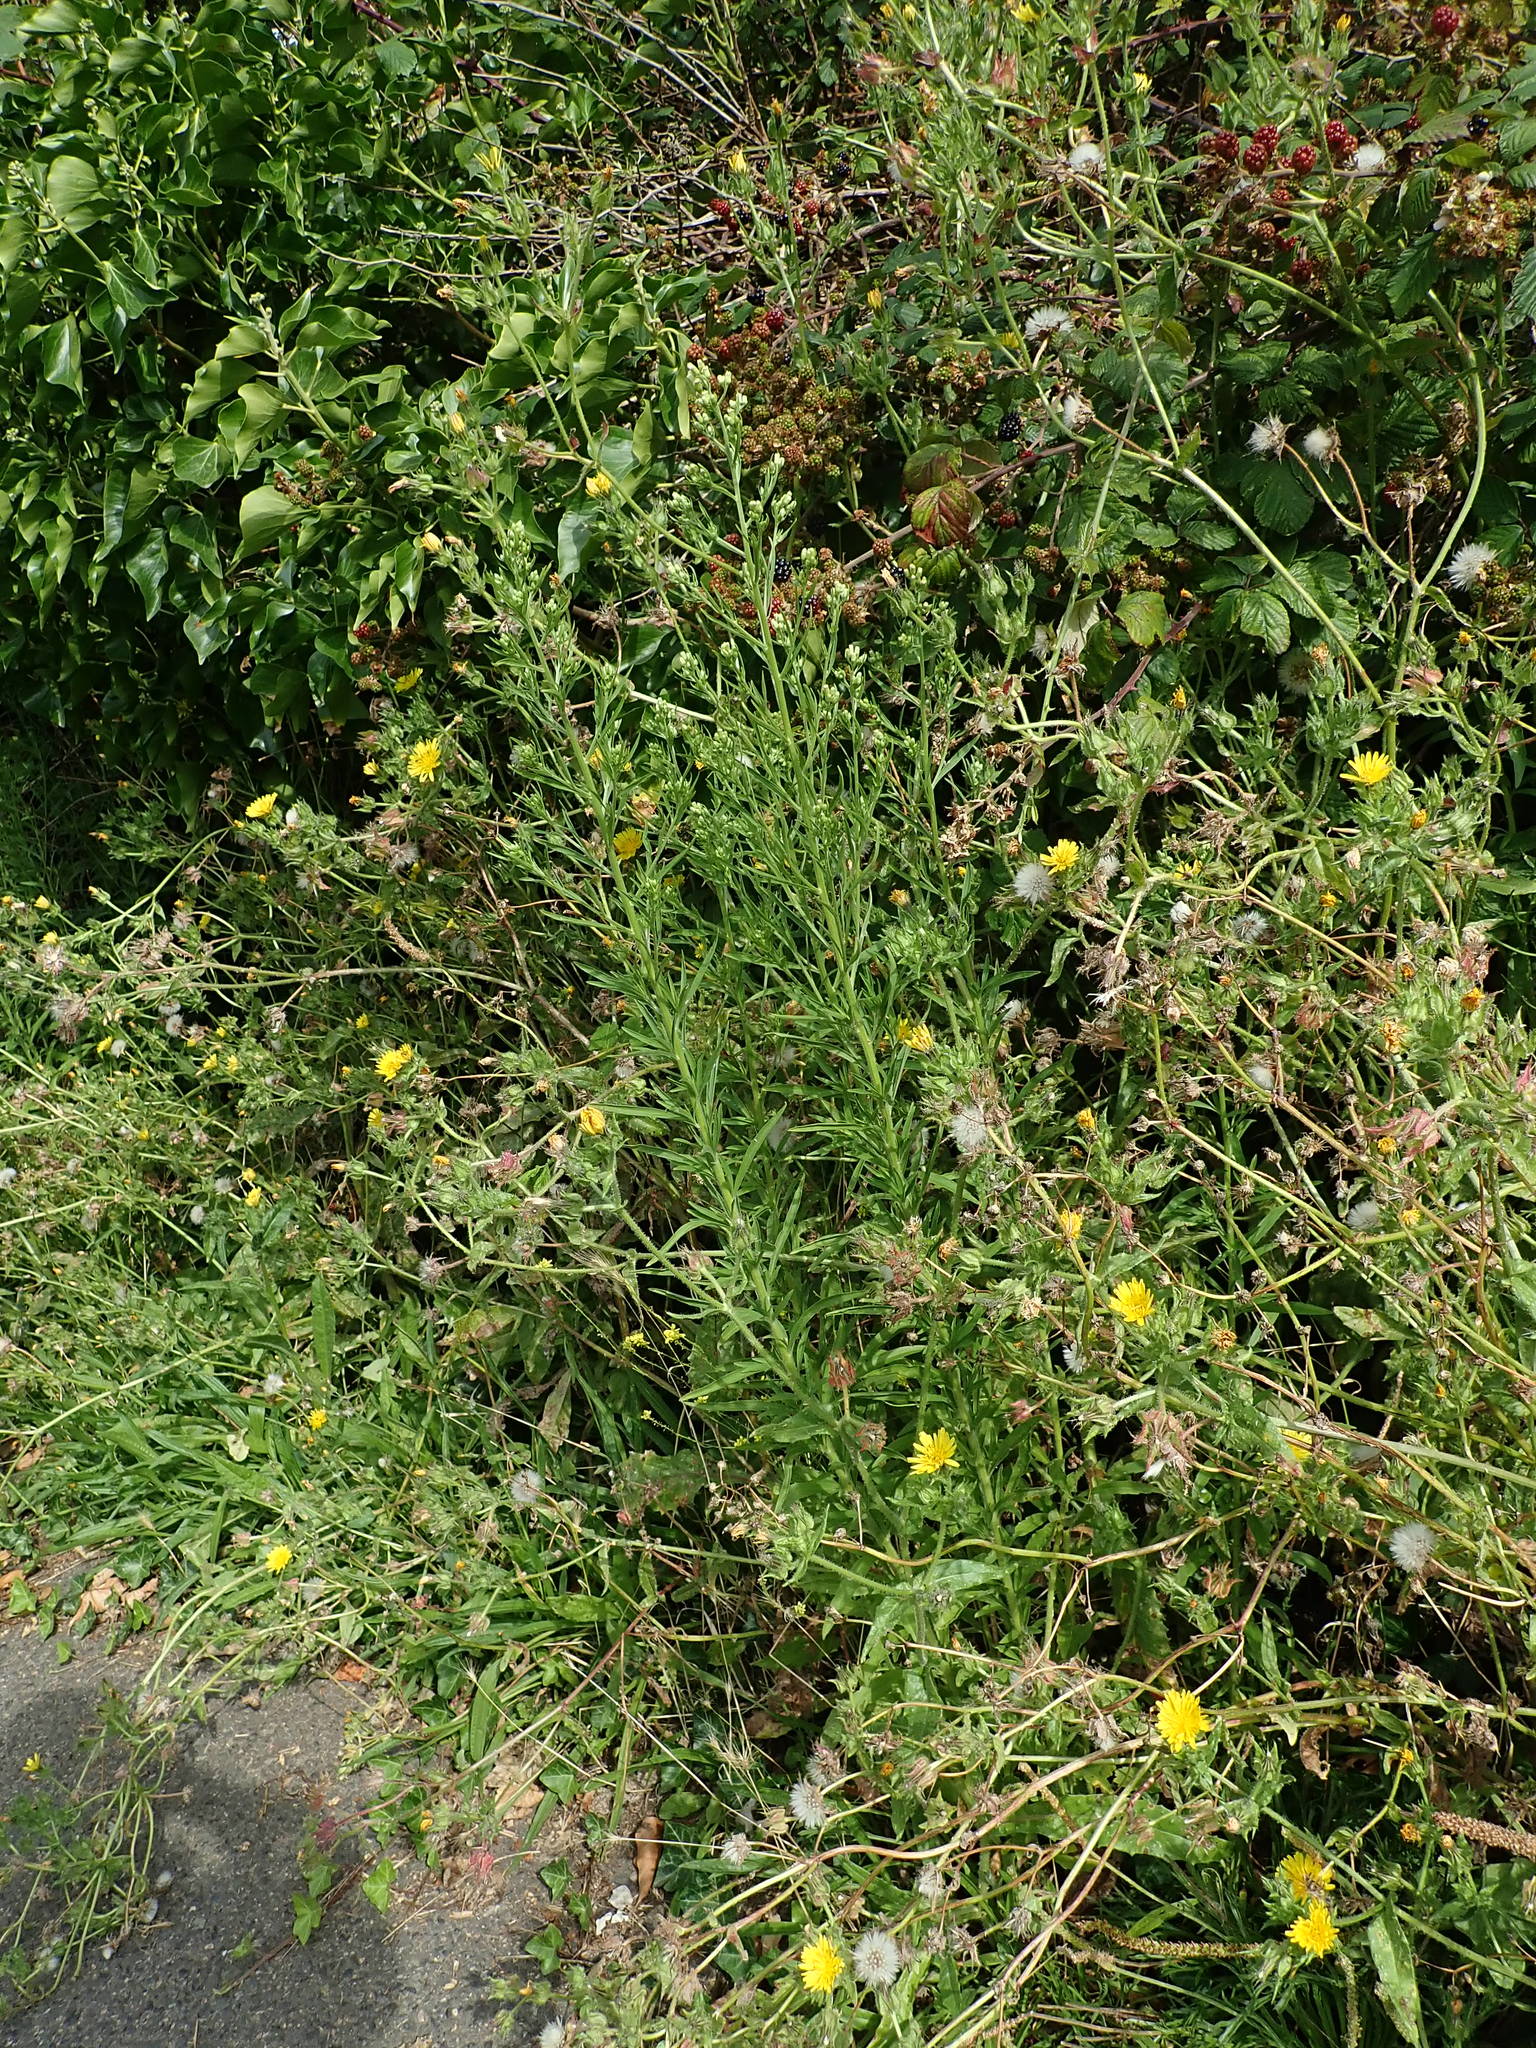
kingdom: Plantae
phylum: Tracheophyta
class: Magnoliopsida
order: Asterales
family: Asteraceae
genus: Erigeron
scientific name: Erigeron sumatrensis
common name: Daisy
